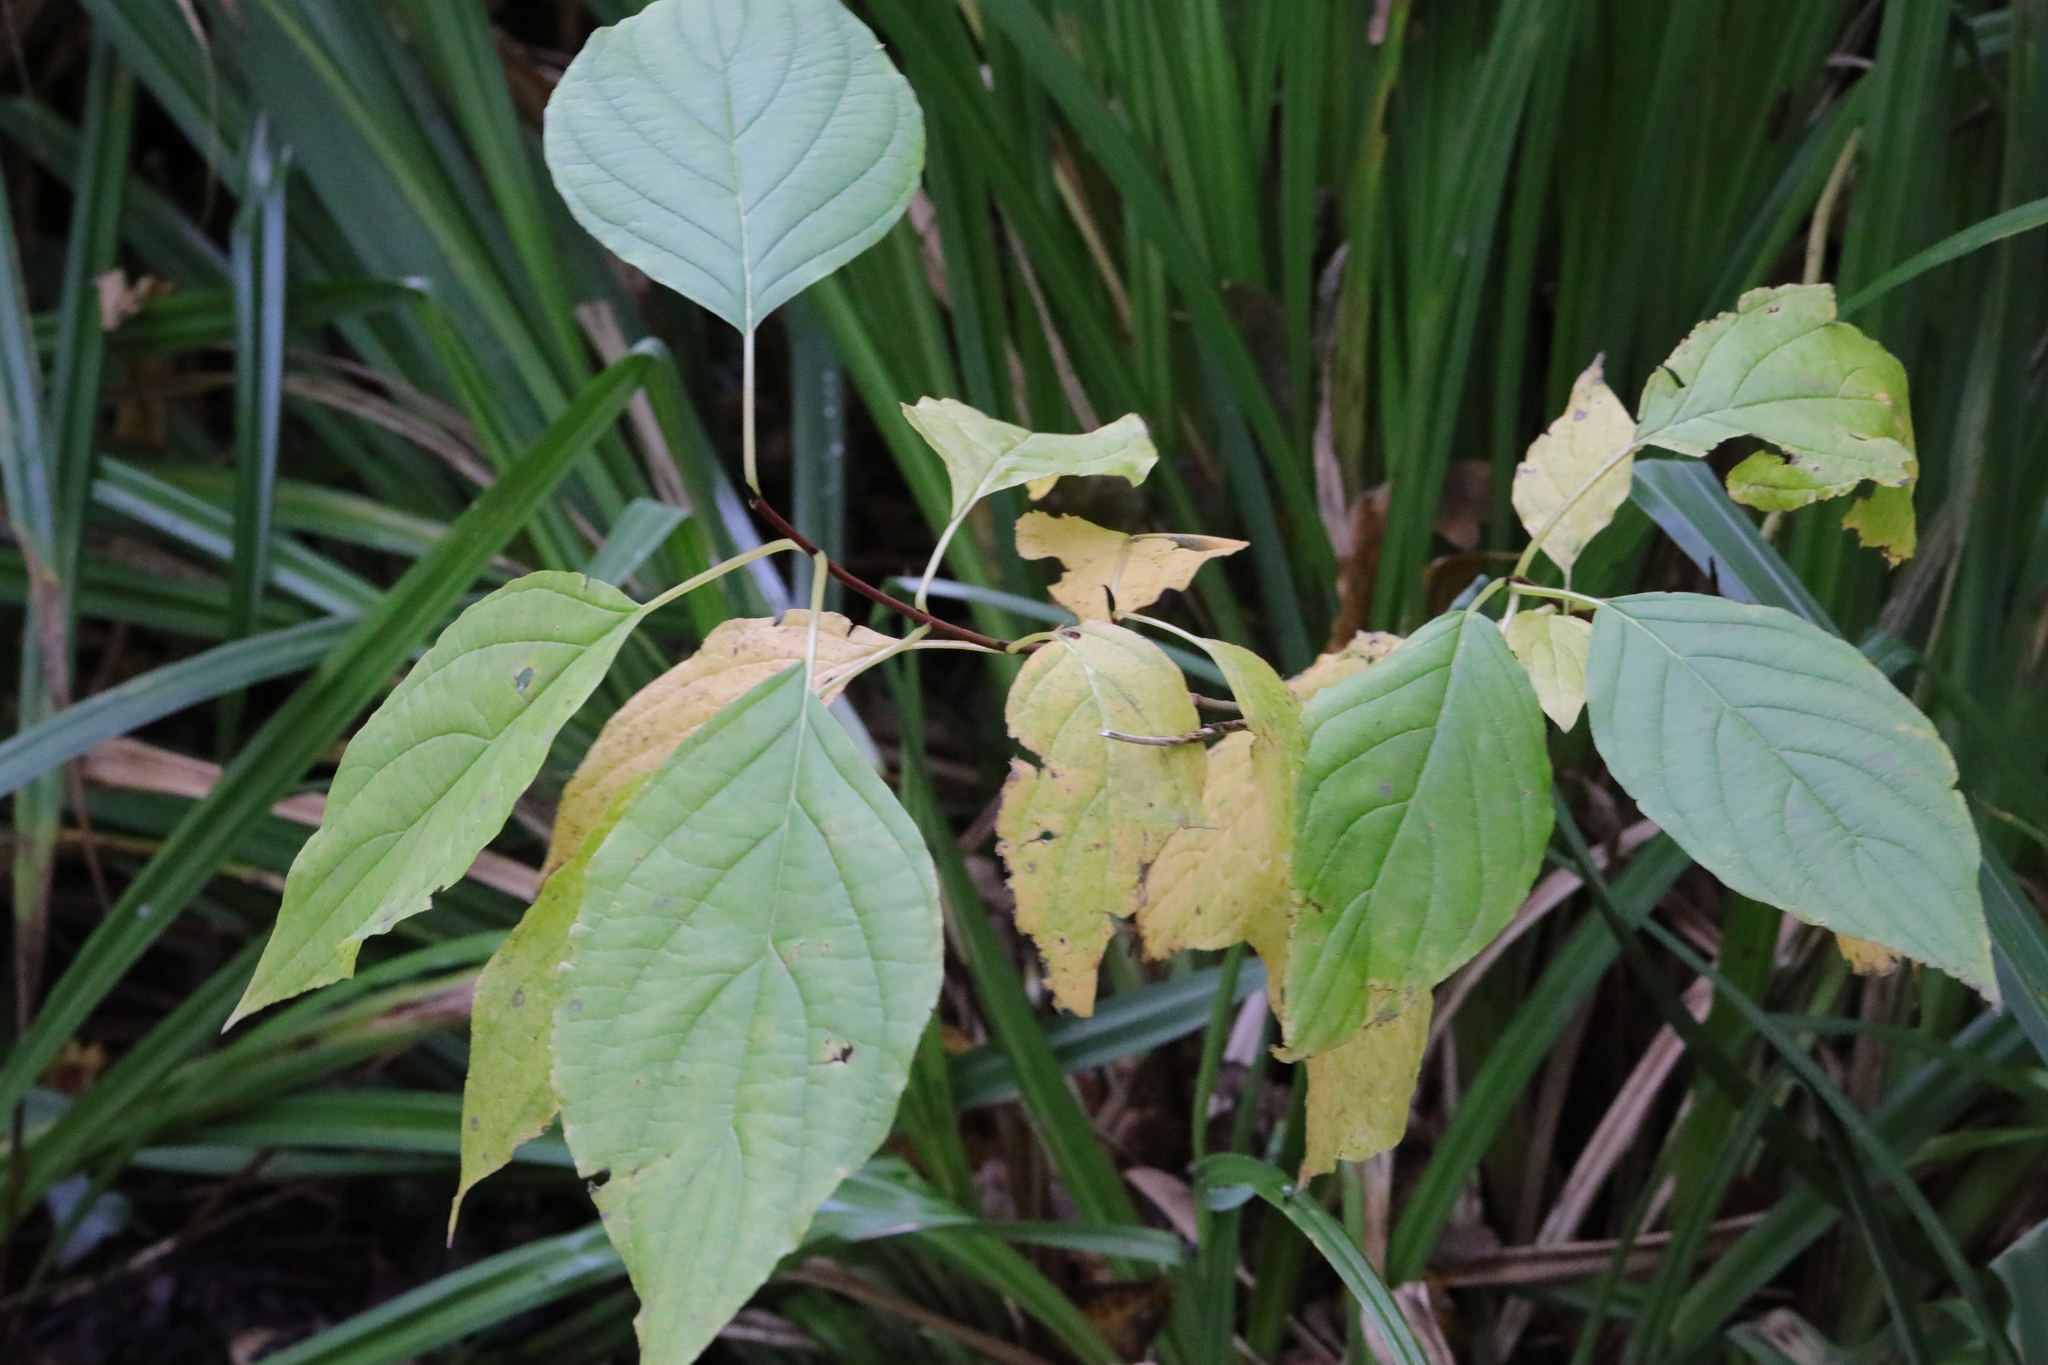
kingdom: Plantae
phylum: Tracheophyta
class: Magnoliopsida
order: Cornales
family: Cornaceae
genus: Cornus
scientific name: Cornus sanguinea
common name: Dogwood
